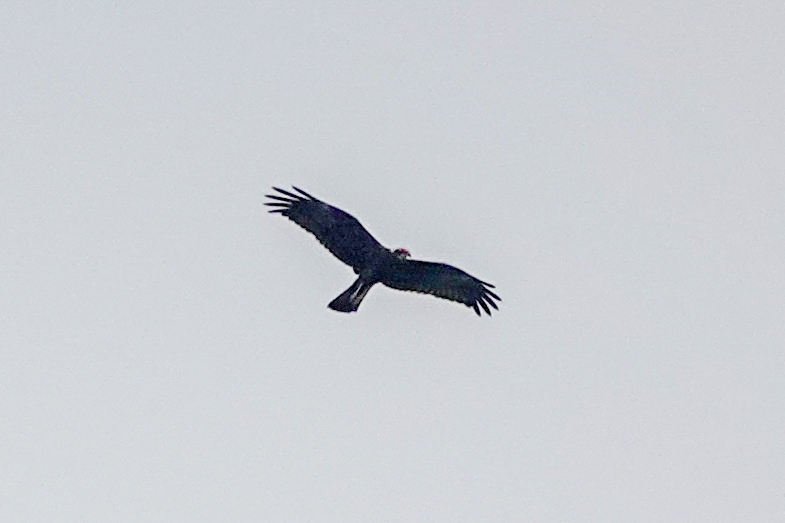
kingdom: Animalia
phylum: Chordata
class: Aves
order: Accipitriformes
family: Accipitridae
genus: Circus
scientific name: Circus aeruginosus
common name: Western marsh harrier
